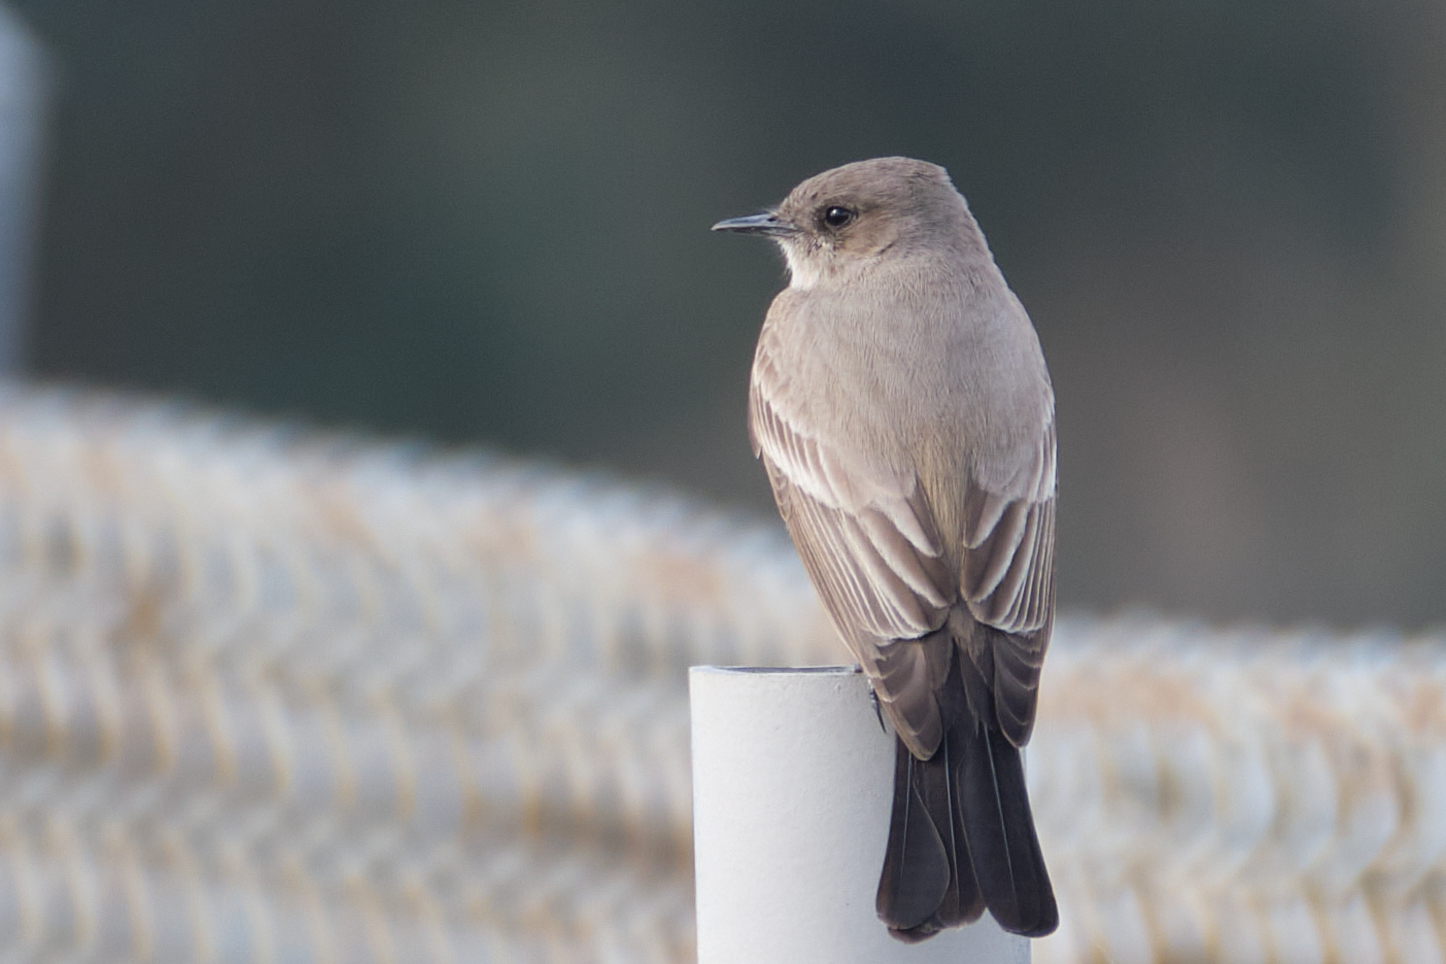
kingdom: Animalia
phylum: Chordata
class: Aves
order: Passeriformes
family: Tyrannidae
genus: Sayornis
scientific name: Sayornis saya
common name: Say's phoebe
